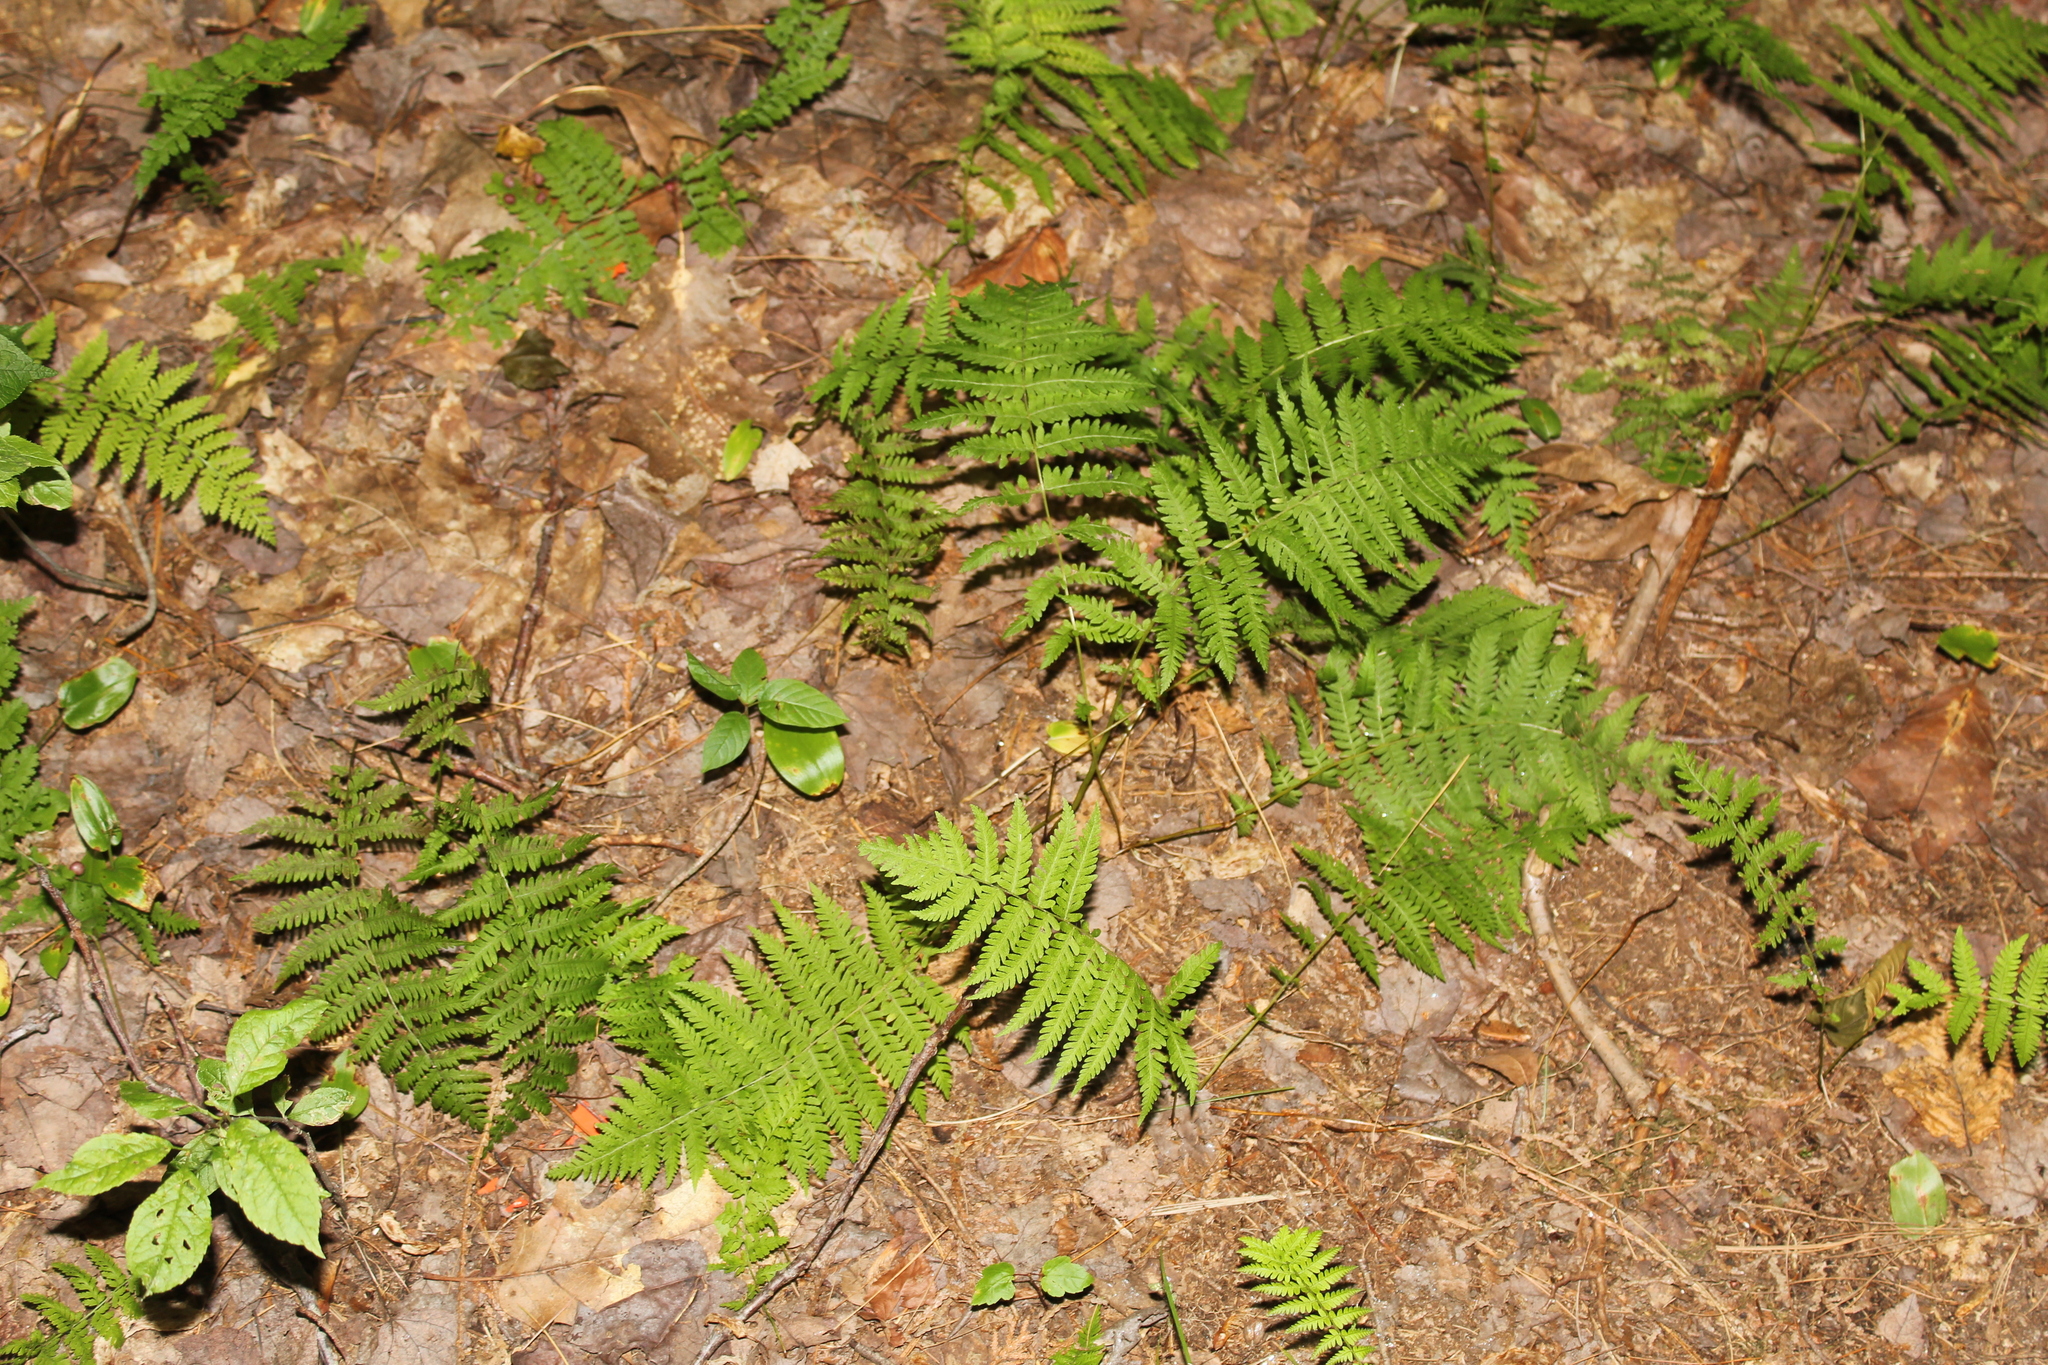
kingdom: Plantae
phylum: Tracheophyta
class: Polypodiopsida
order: Polypodiales
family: Thelypteridaceae
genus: Amauropelta
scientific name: Amauropelta noveboracensis
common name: New york fern
